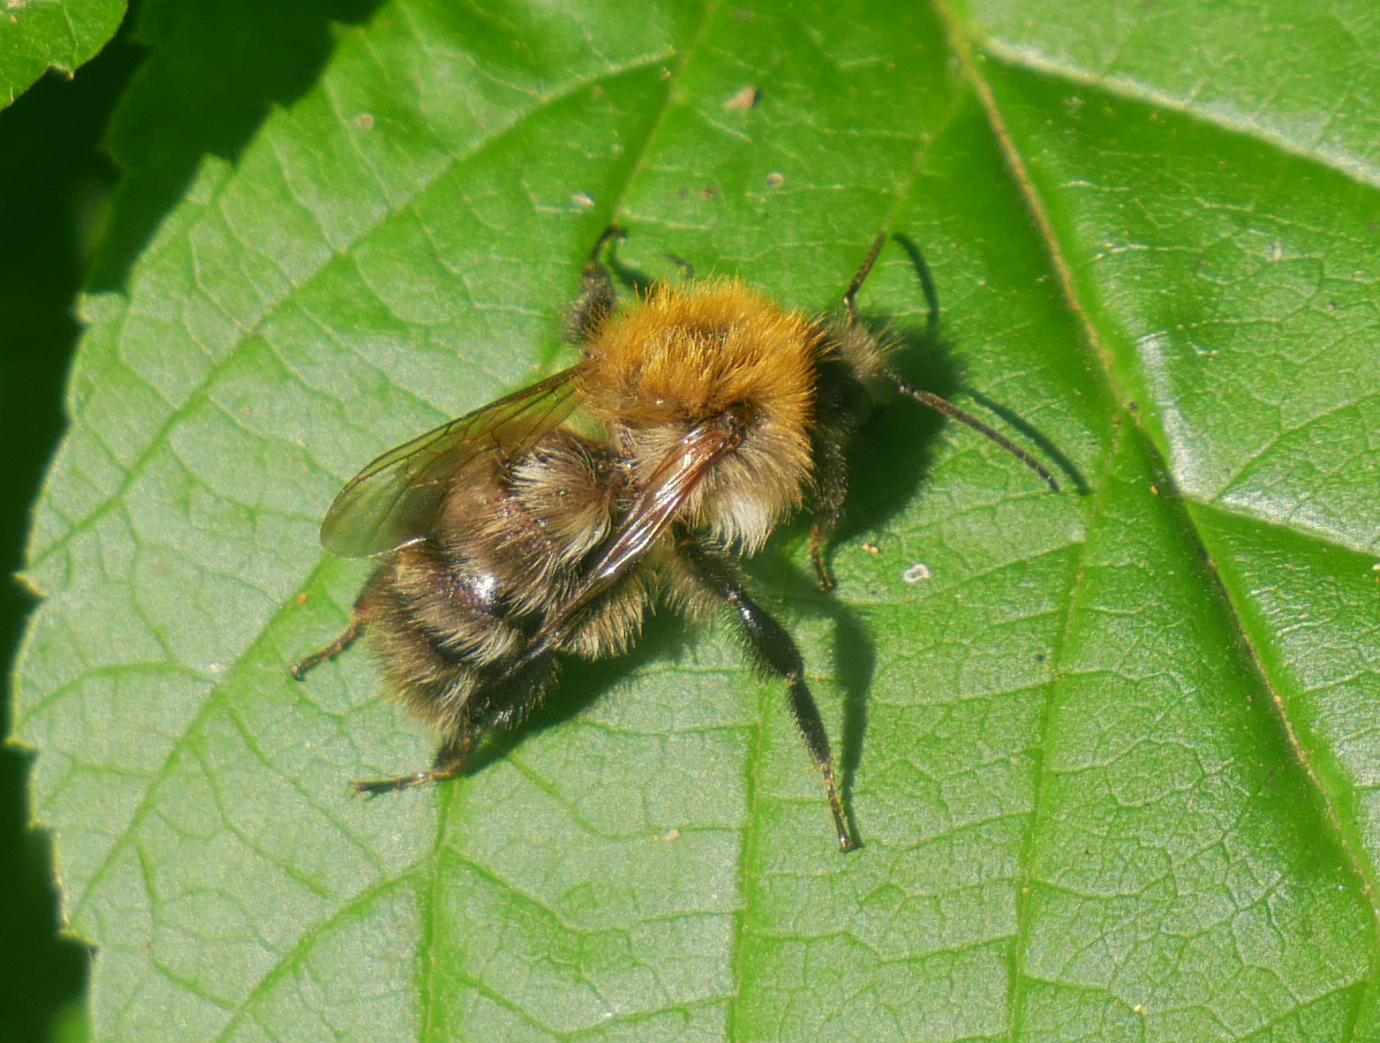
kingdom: Animalia
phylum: Arthropoda
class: Insecta
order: Hymenoptera
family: Apidae
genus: Bombus
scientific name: Bombus pascuorum
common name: Common carder bee
